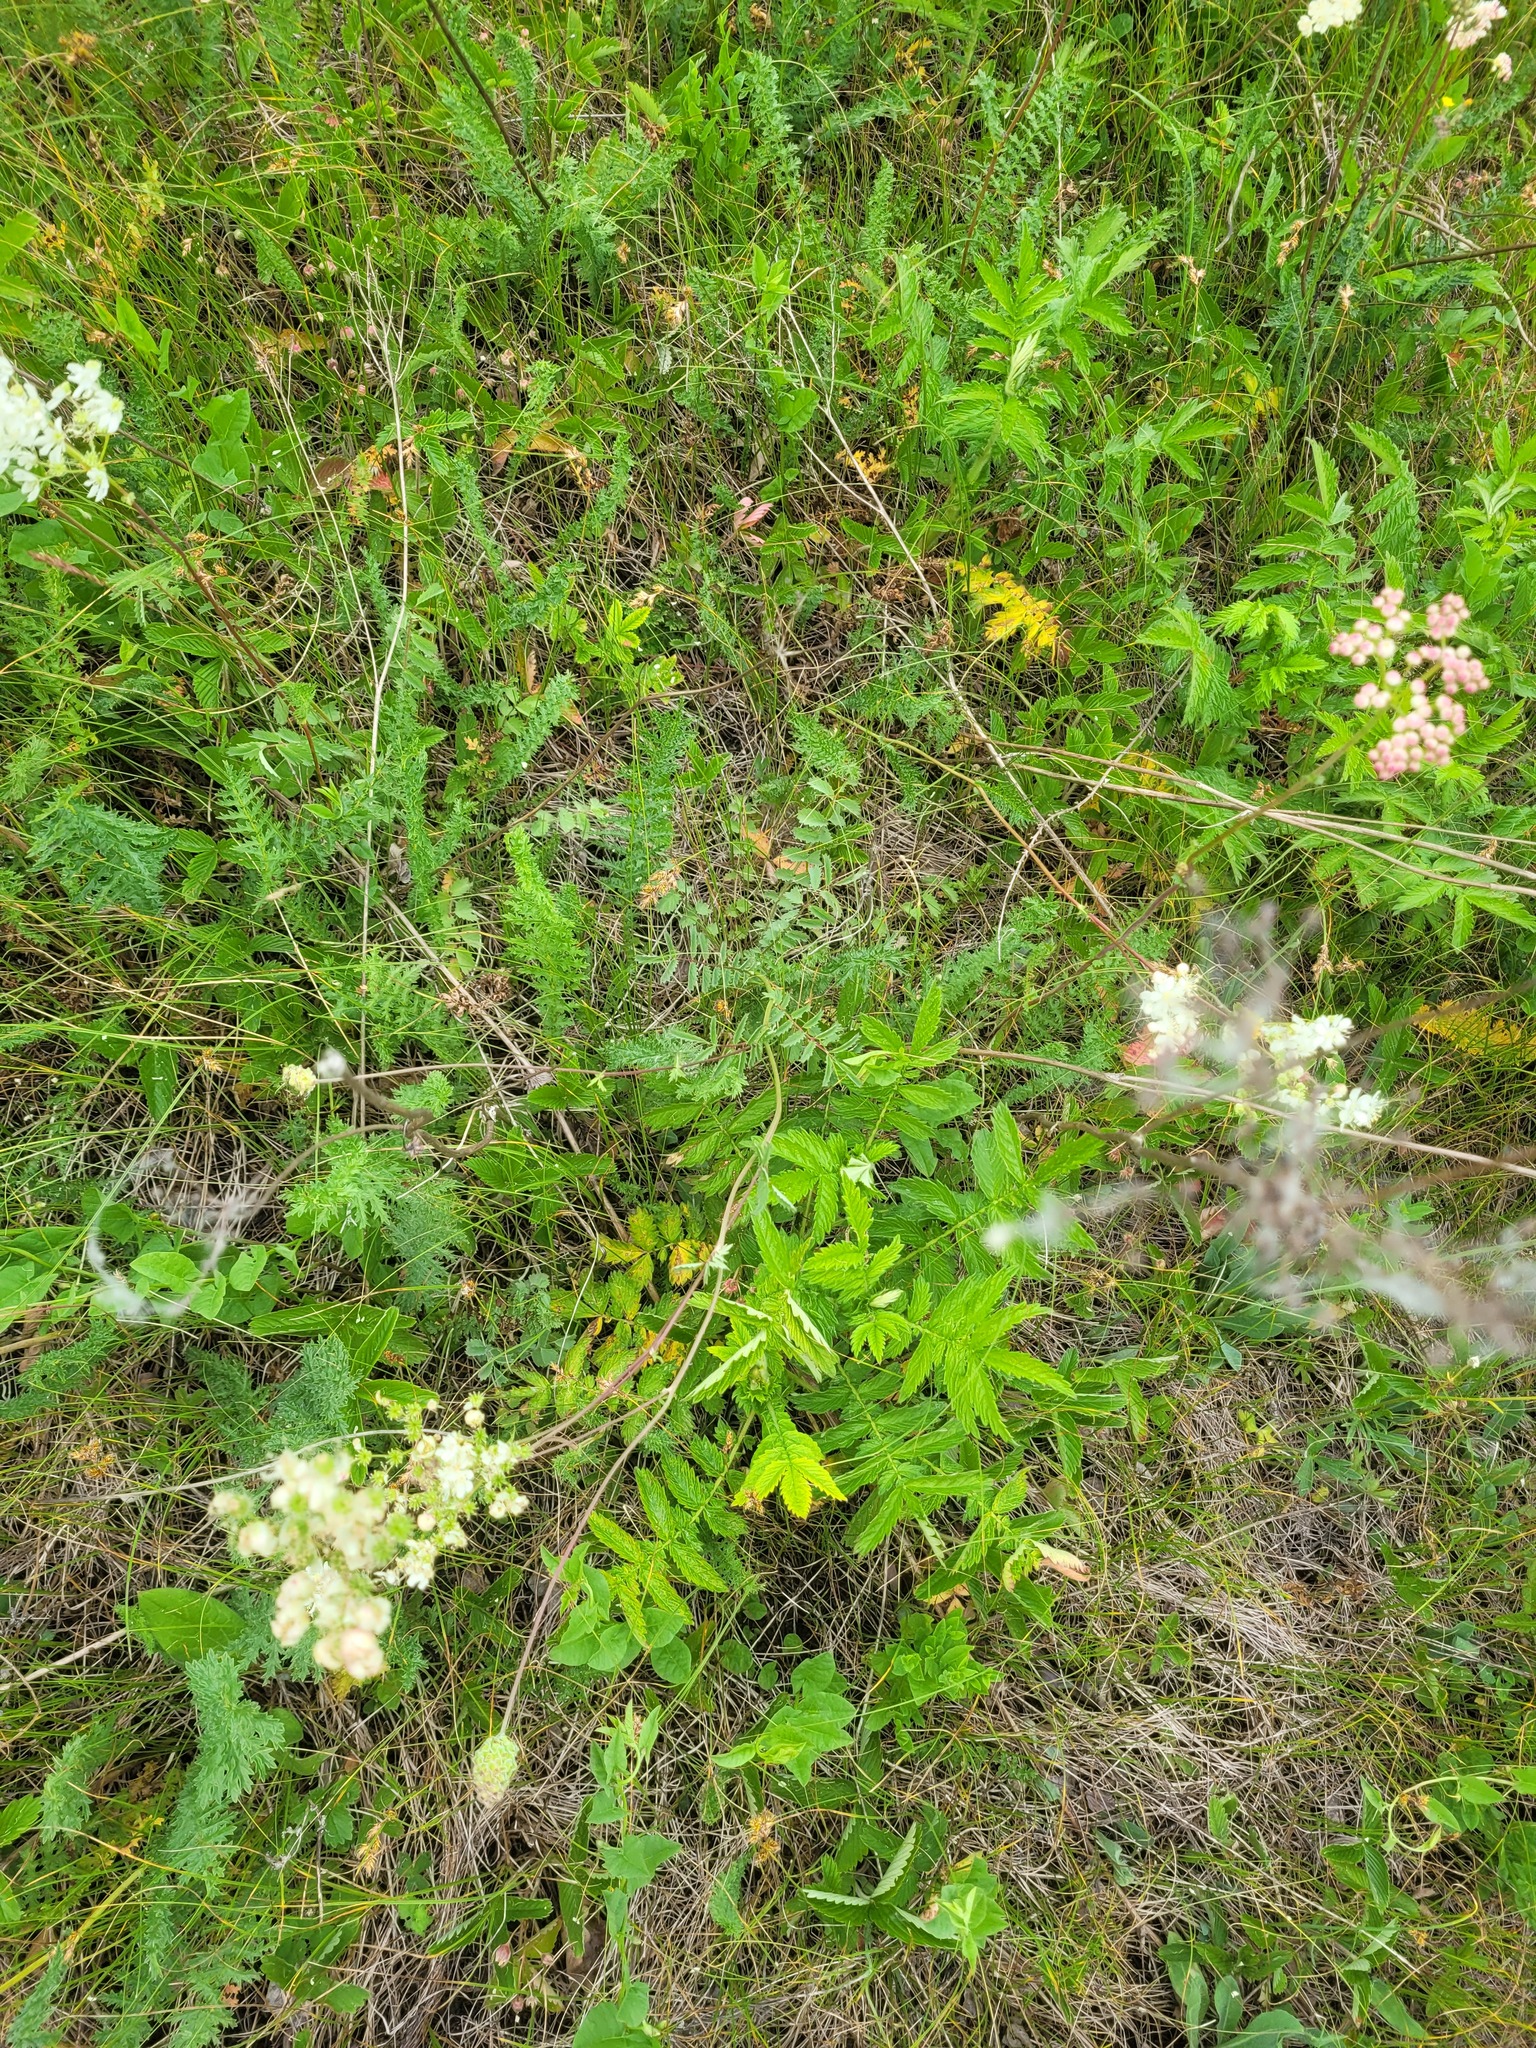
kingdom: Plantae
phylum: Tracheophyta
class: Magnoliopsida
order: Rosales
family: Rosaceae
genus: Poterium
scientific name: Poterium sanguisorba
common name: Salad burnet
